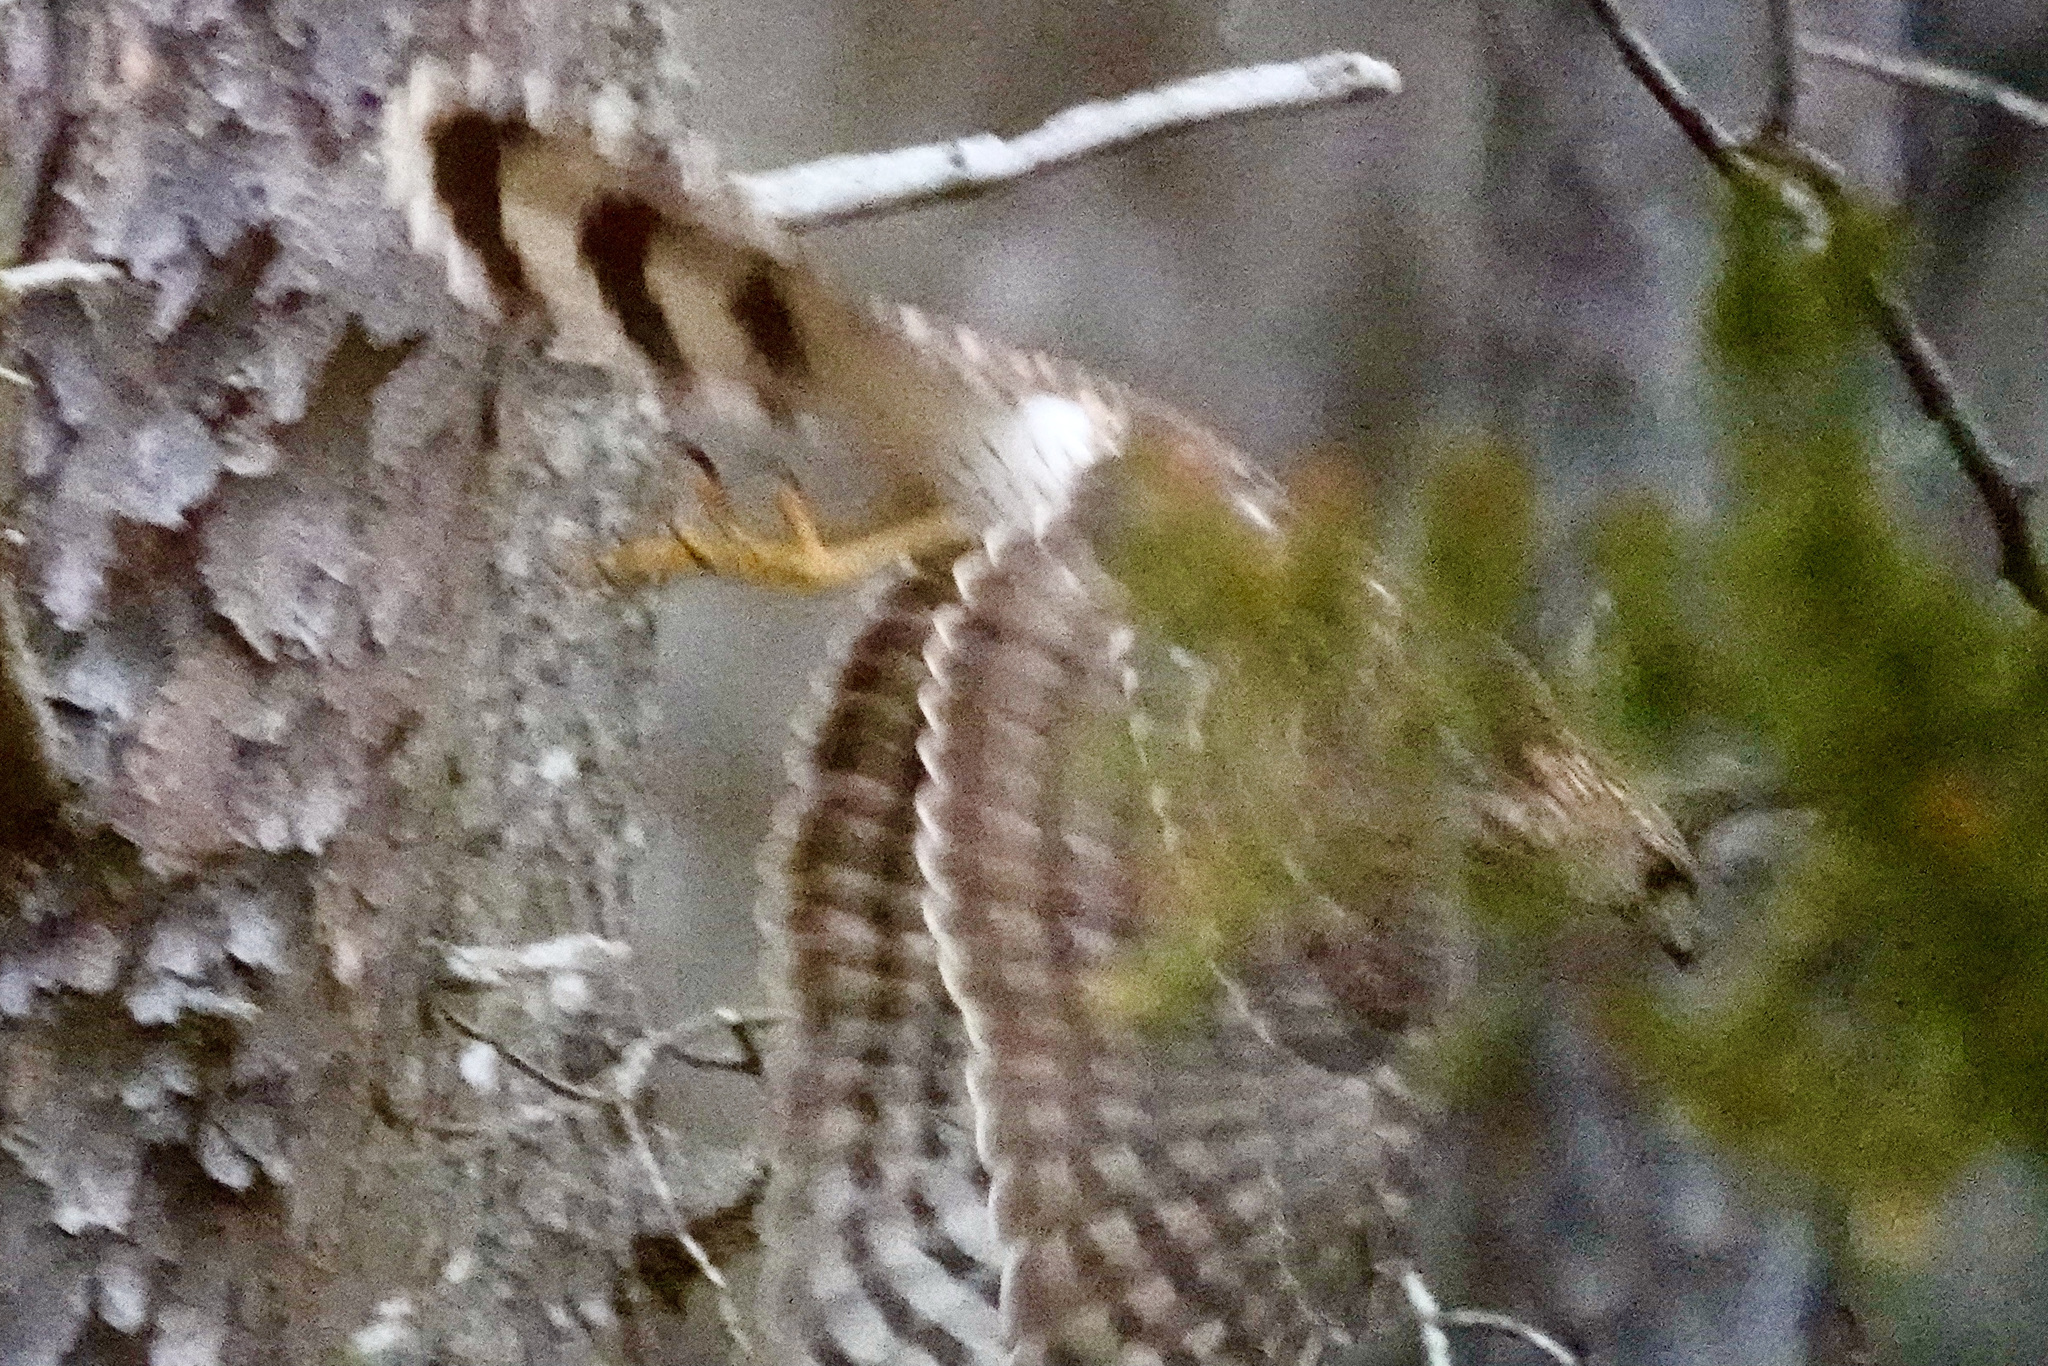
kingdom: Animalia
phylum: Chordata
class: Aves
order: Accipitriformes
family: Accipitridae
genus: Accipiter
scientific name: Accipiter cooperii
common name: Cooper's hawk
